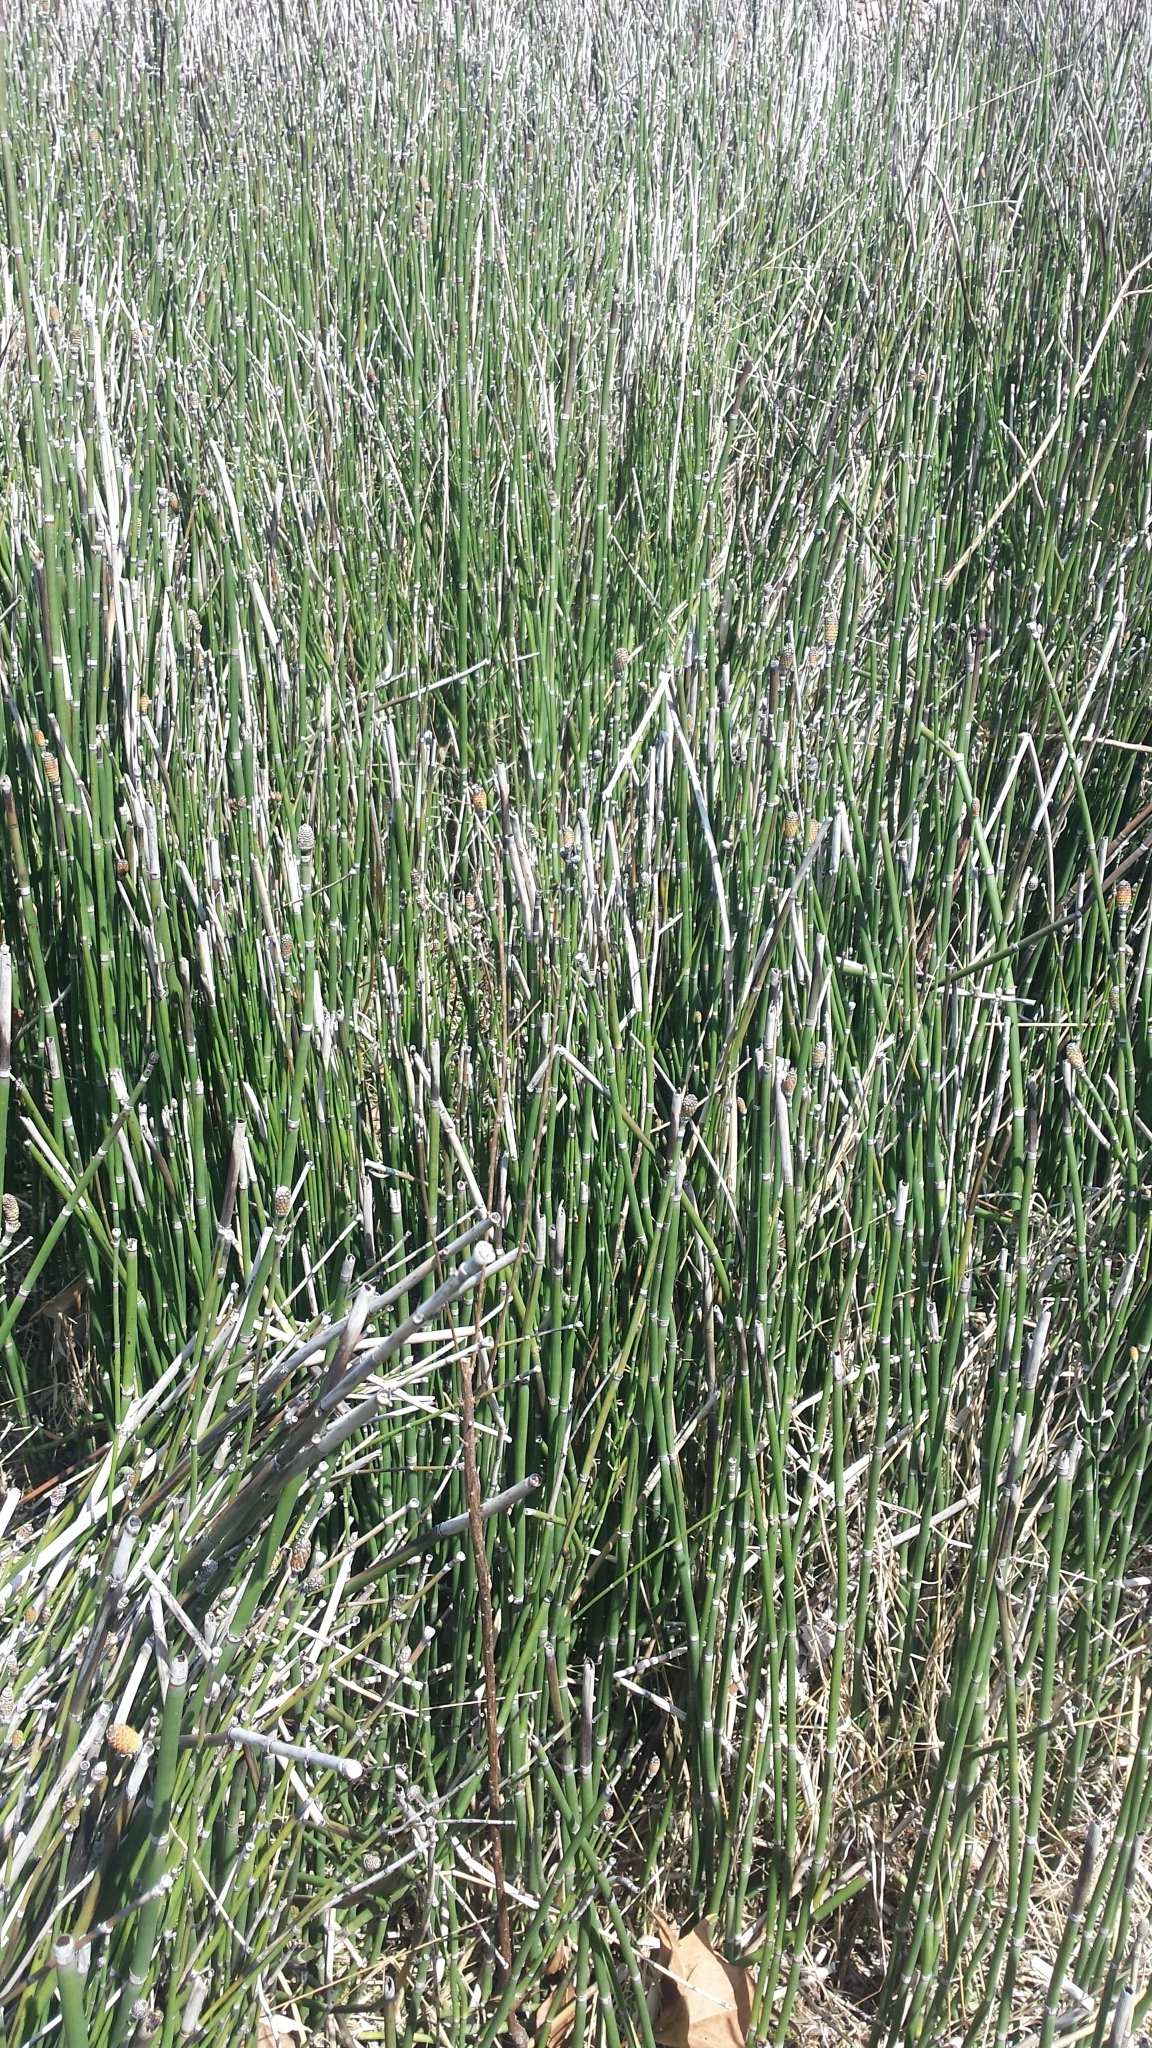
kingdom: Plantae
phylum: Tracheophyta
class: Polypodiopsida
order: Equisetales
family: Equisetaceae
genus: Equisetum
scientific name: Equisetum hyemale
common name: Rough horsetail
